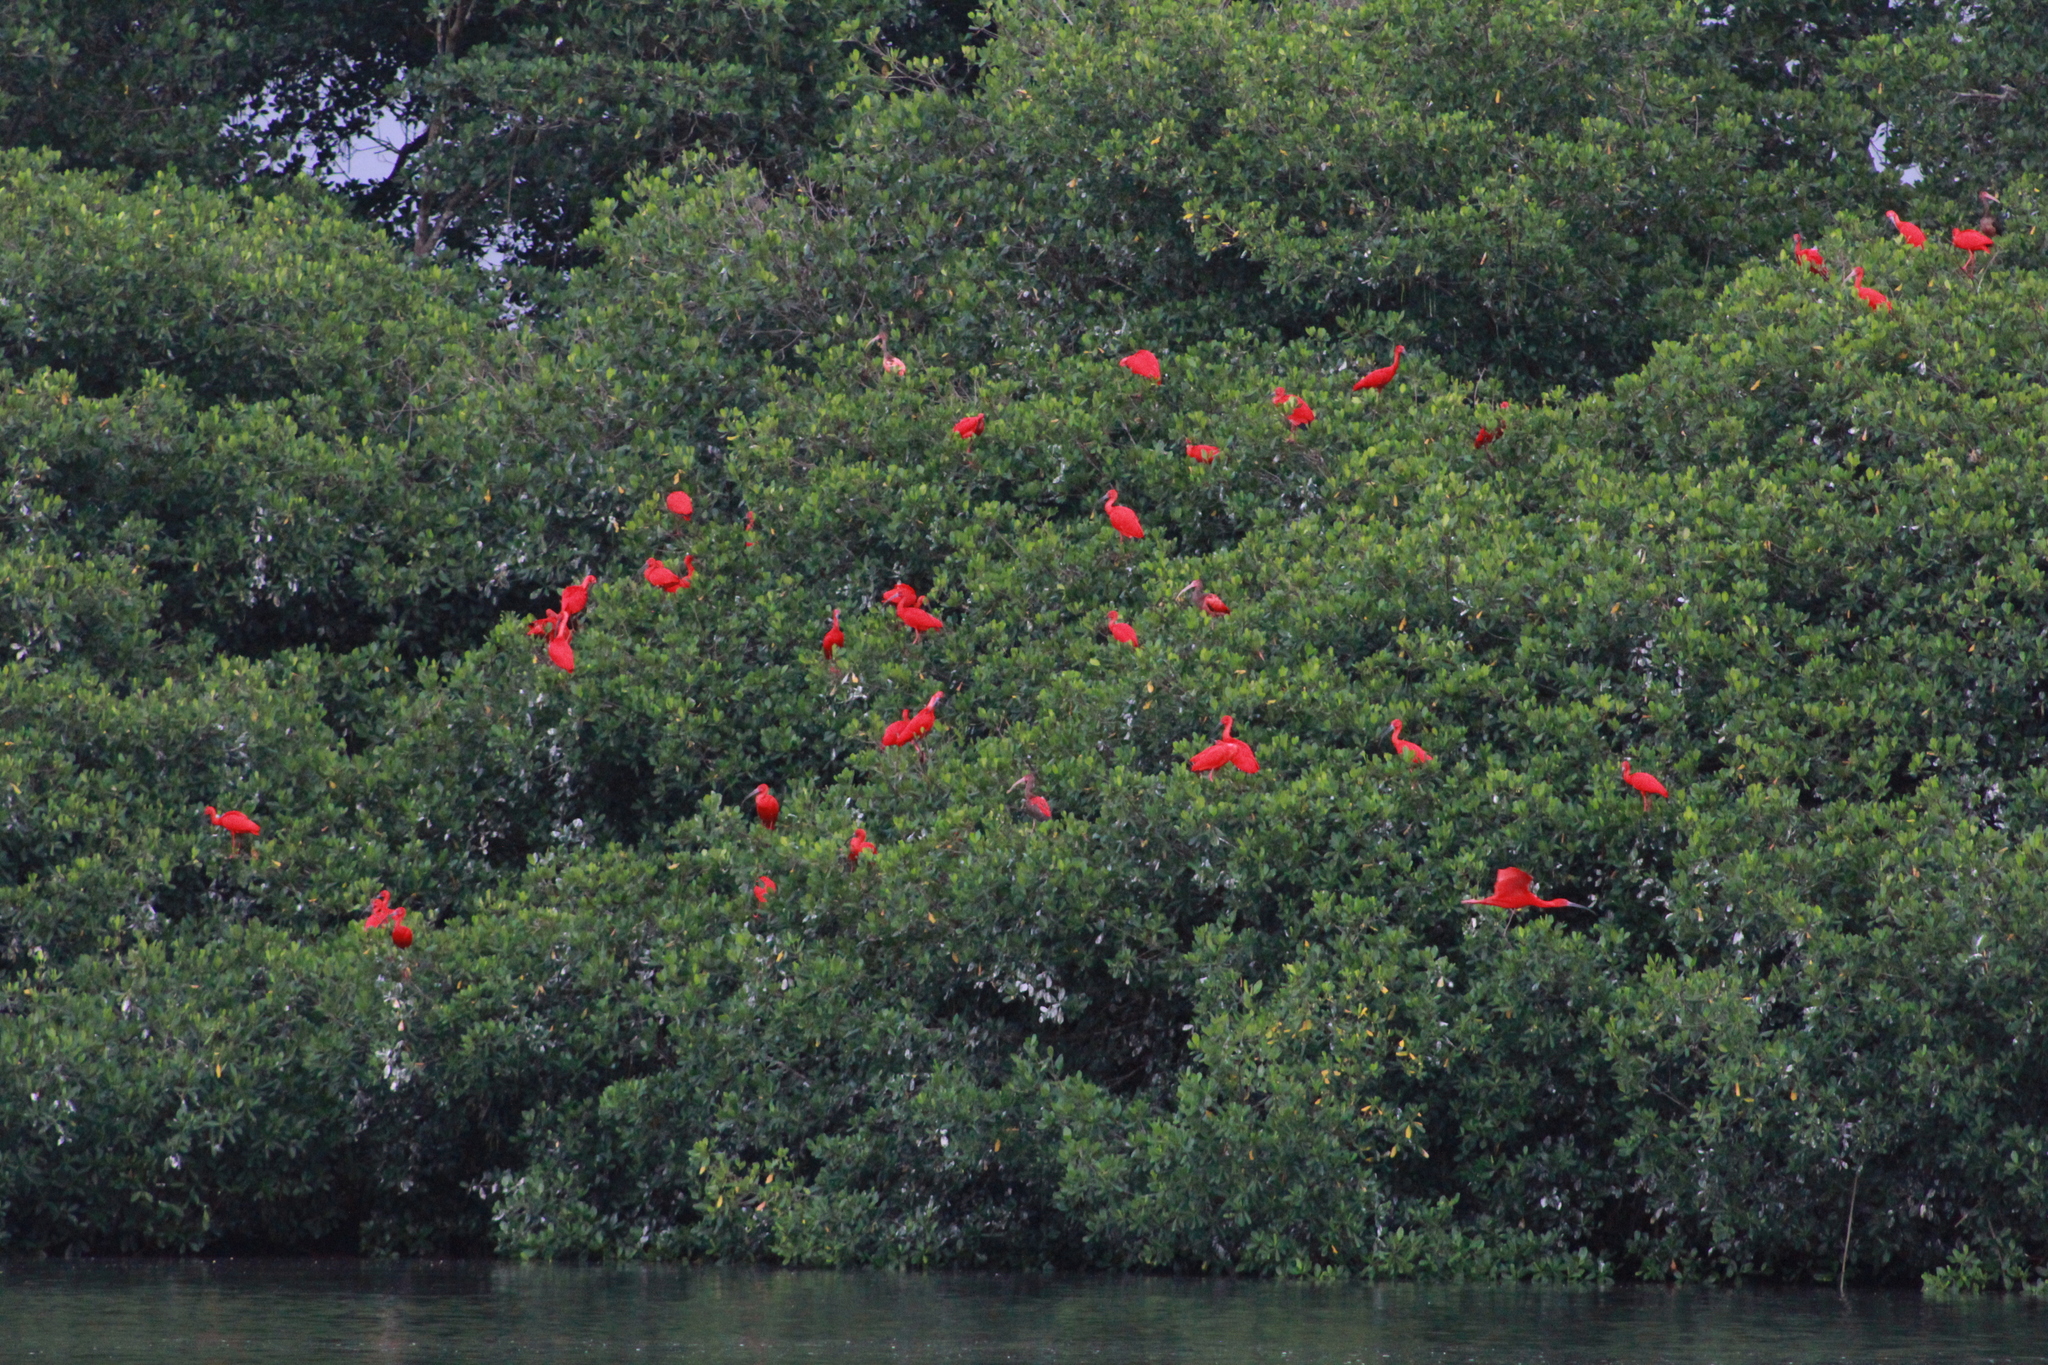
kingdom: Animalia
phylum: Chordata
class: Aves
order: Pelecaniformes
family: Threskiornithidae
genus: Eudocimus
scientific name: Eudocimus ruber
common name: Scarlet ibis
